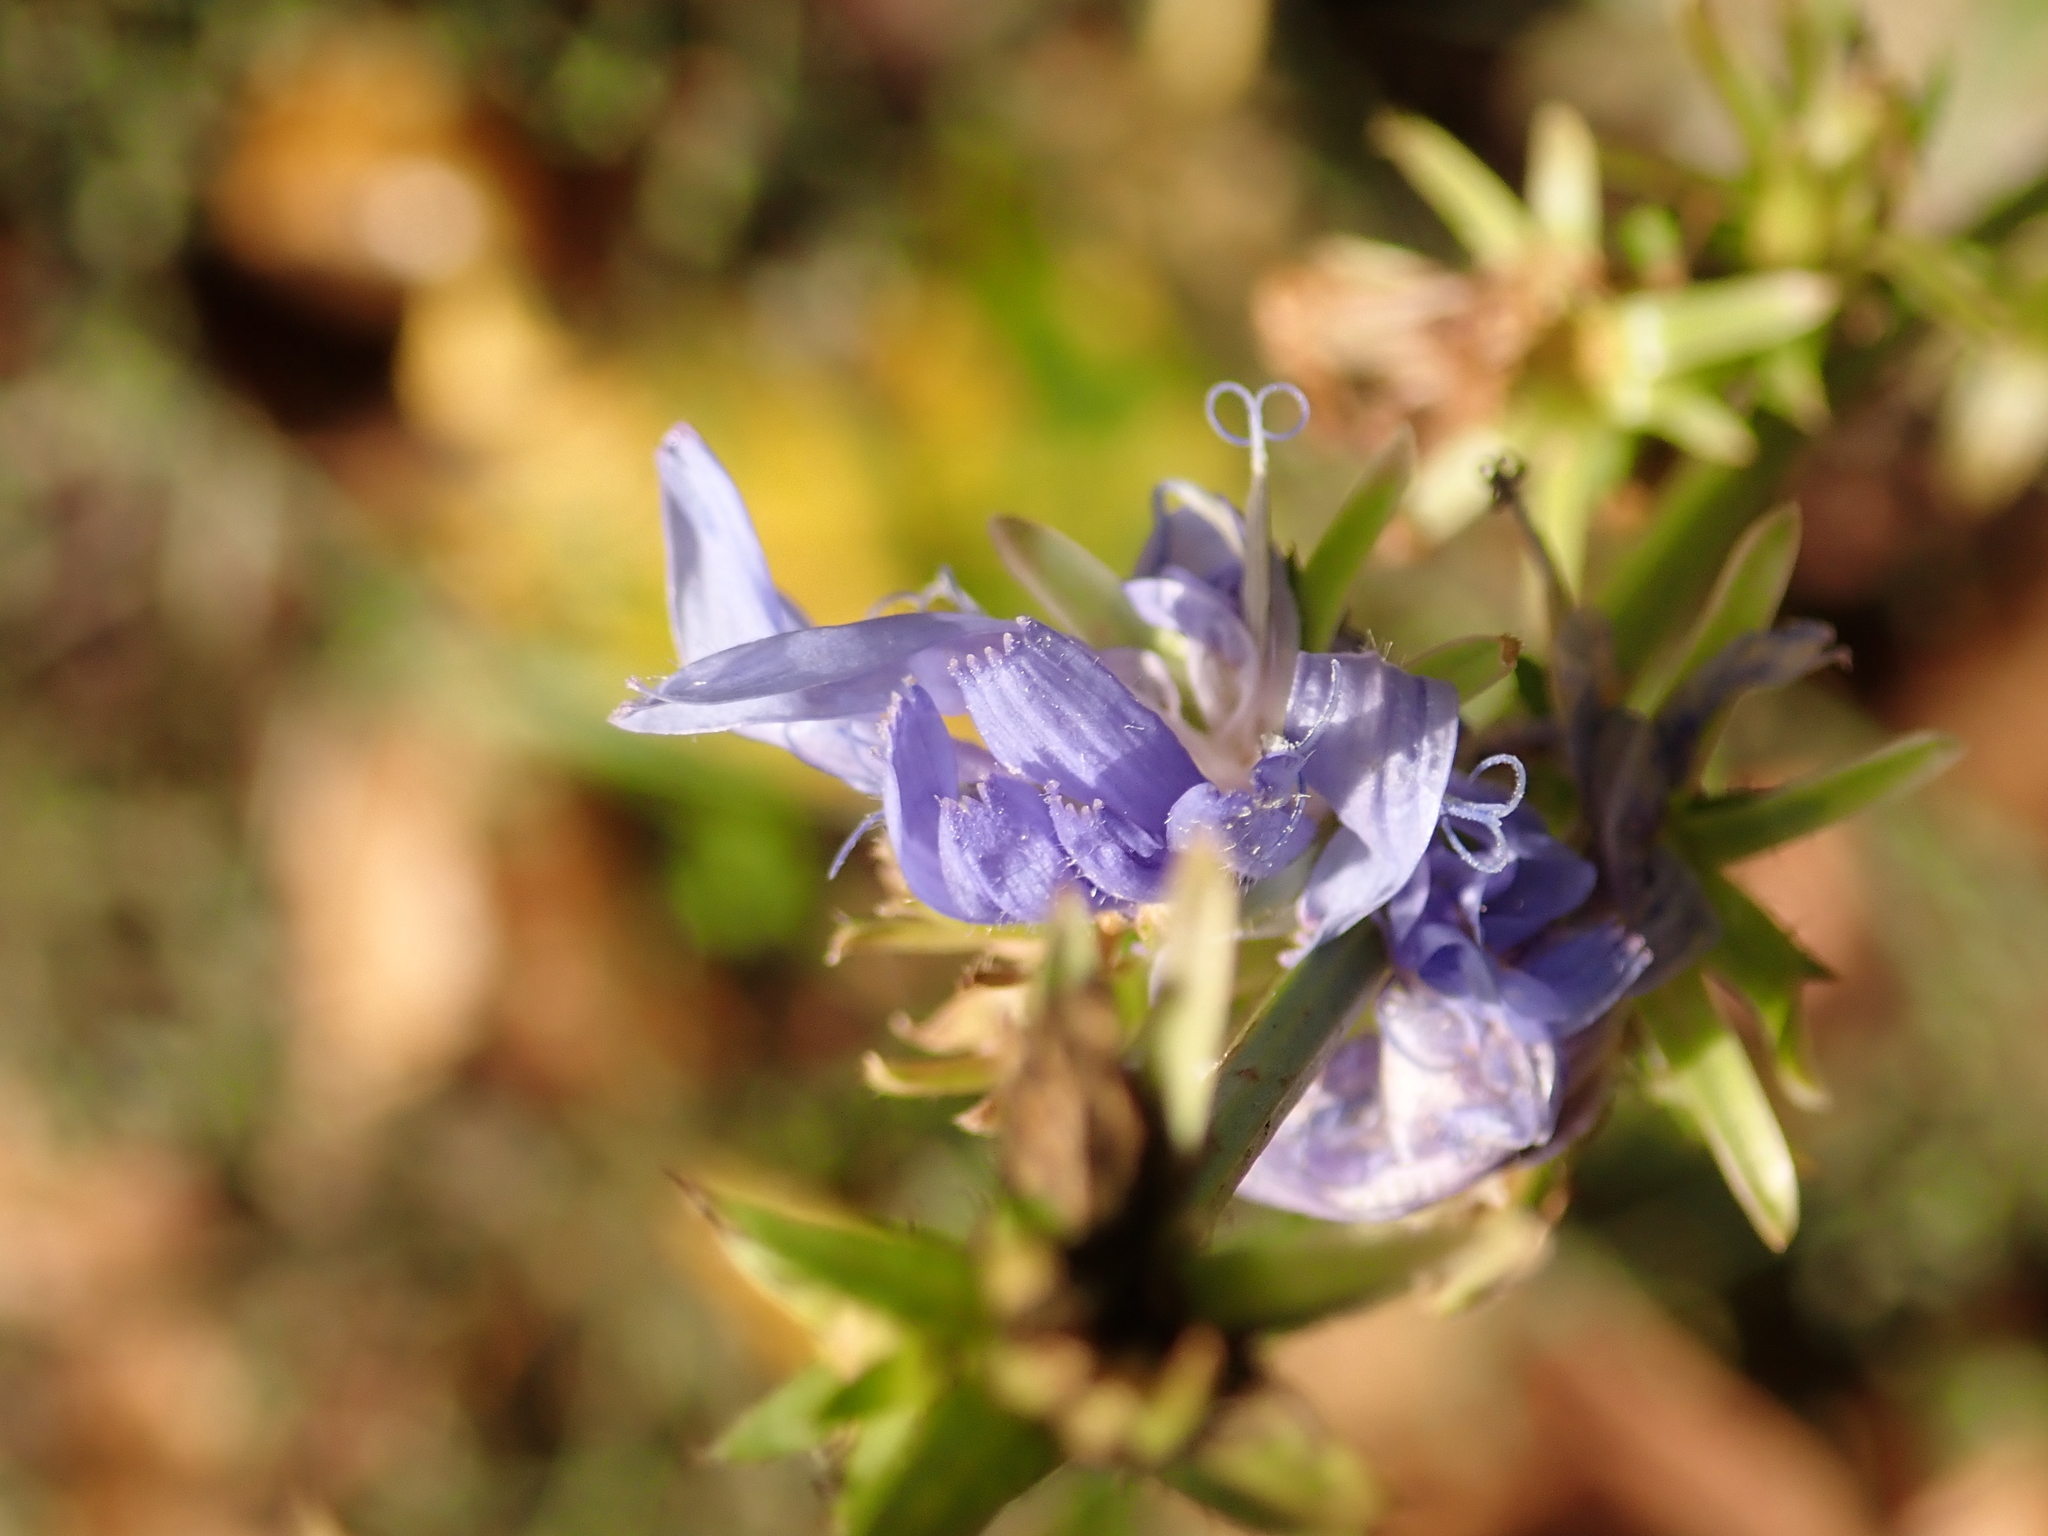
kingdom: Plantae
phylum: Tracheophyta
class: Magnoliopsida
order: Asterales
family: Asteraceae
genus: Cichorium
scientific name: Cichorium intybus
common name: Chicory
